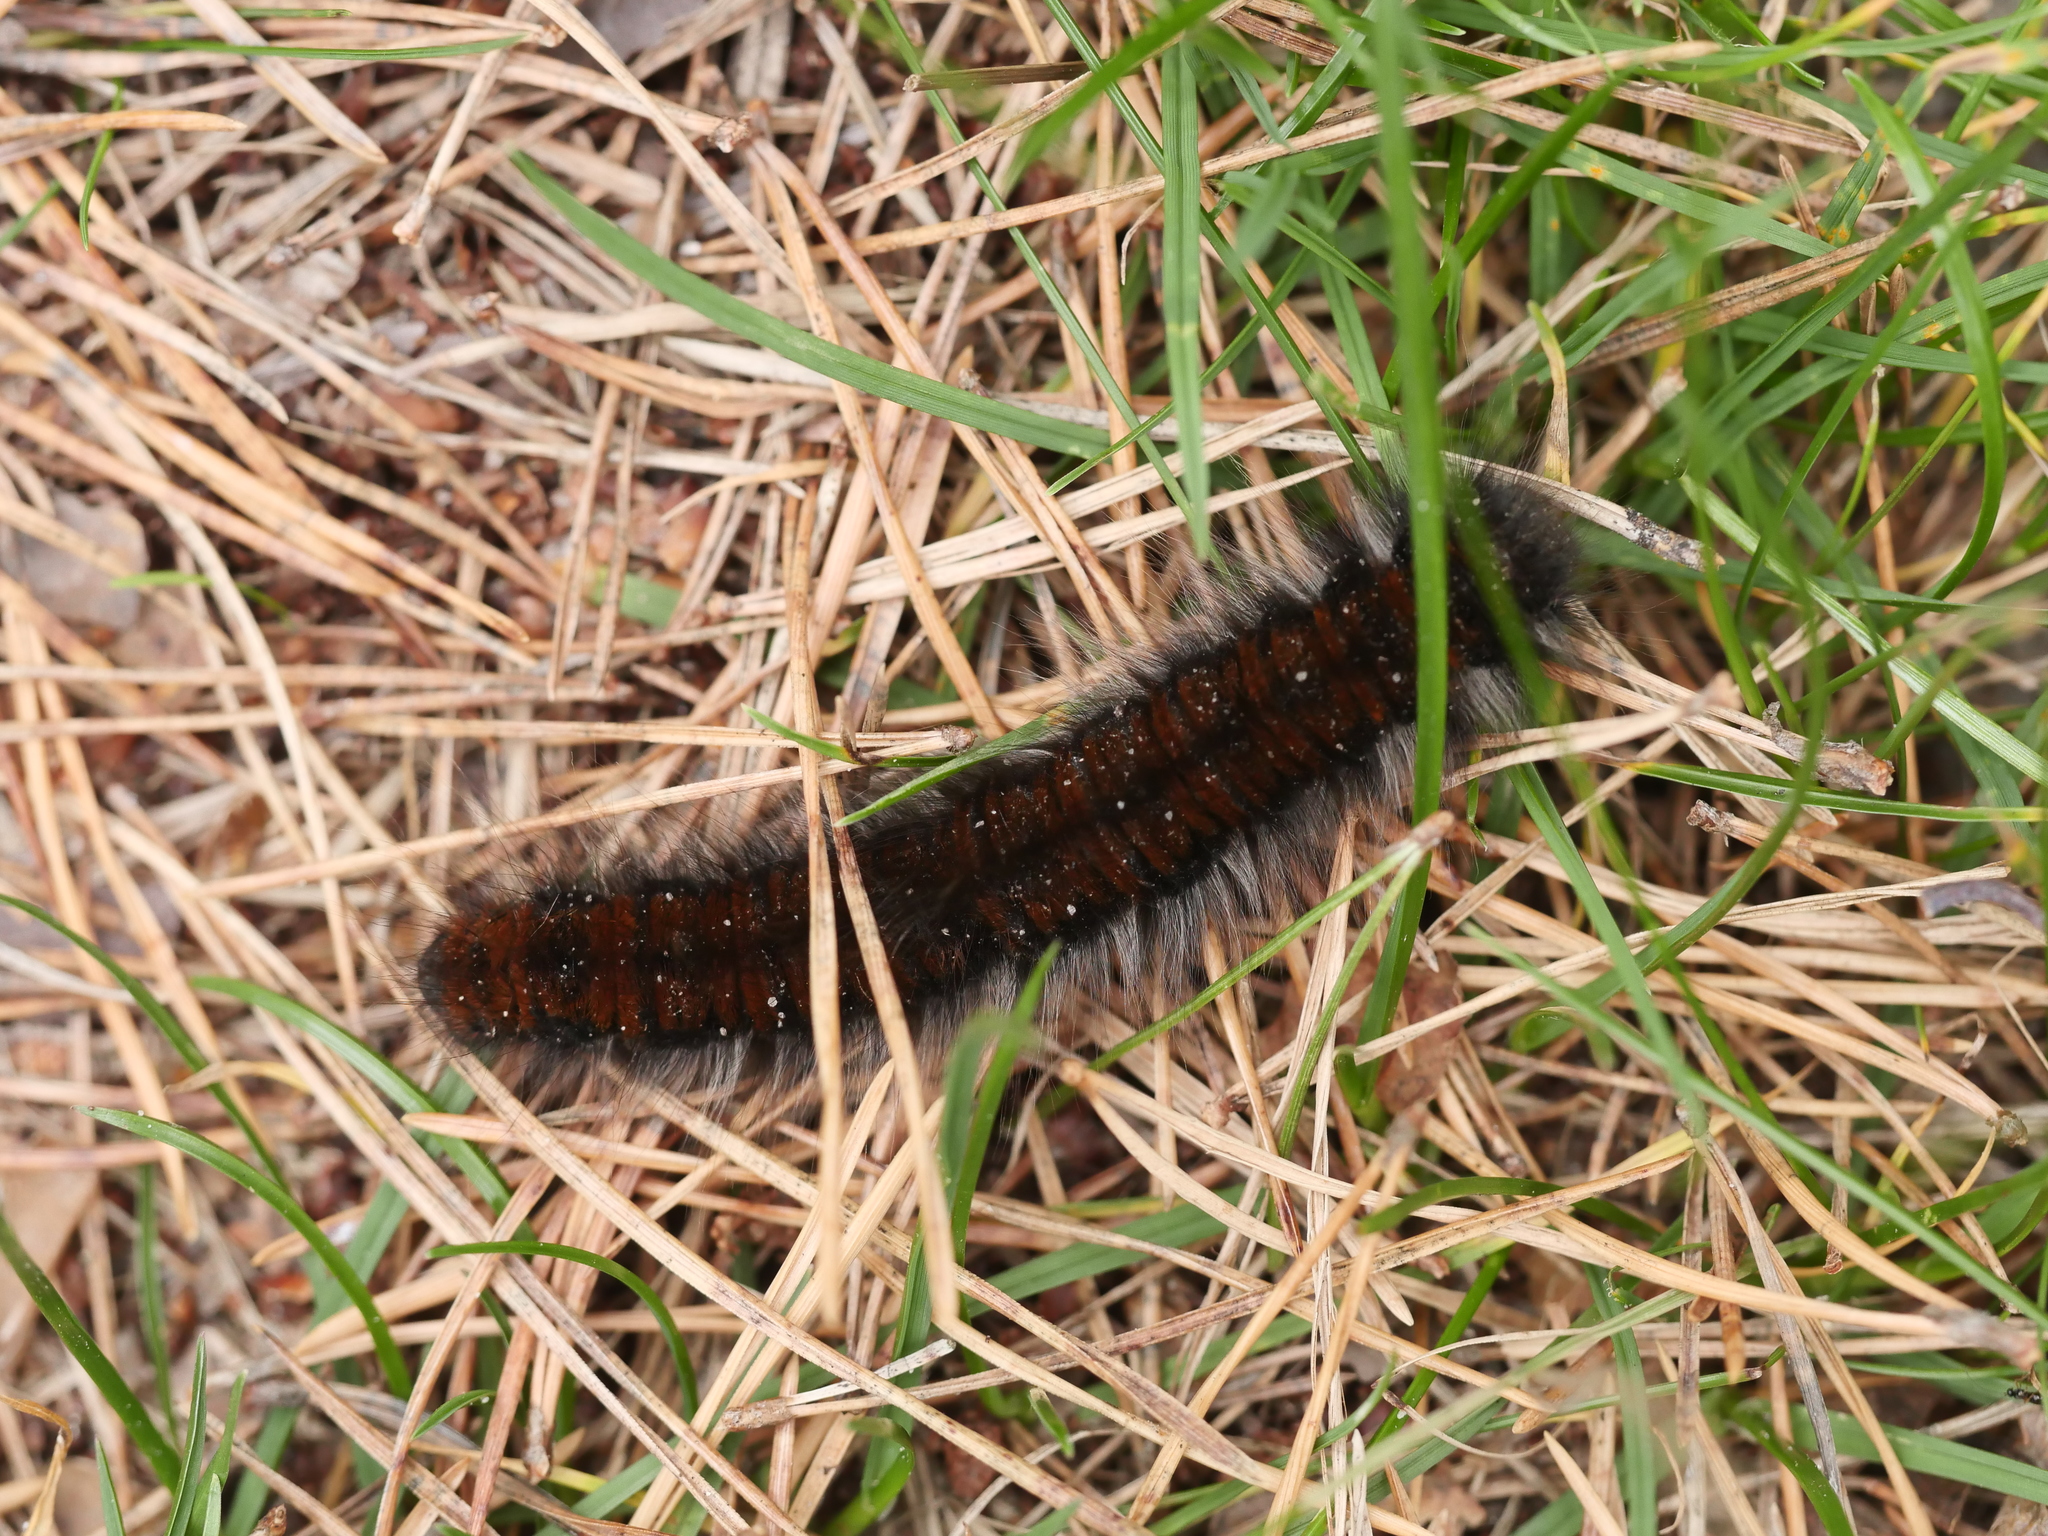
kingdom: Animalia
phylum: Arthropoda
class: Insecta
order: Lepidoptera
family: Lasiocampidae
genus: Macrothylacia
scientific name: Macrothylacia rubi
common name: Fox moth
